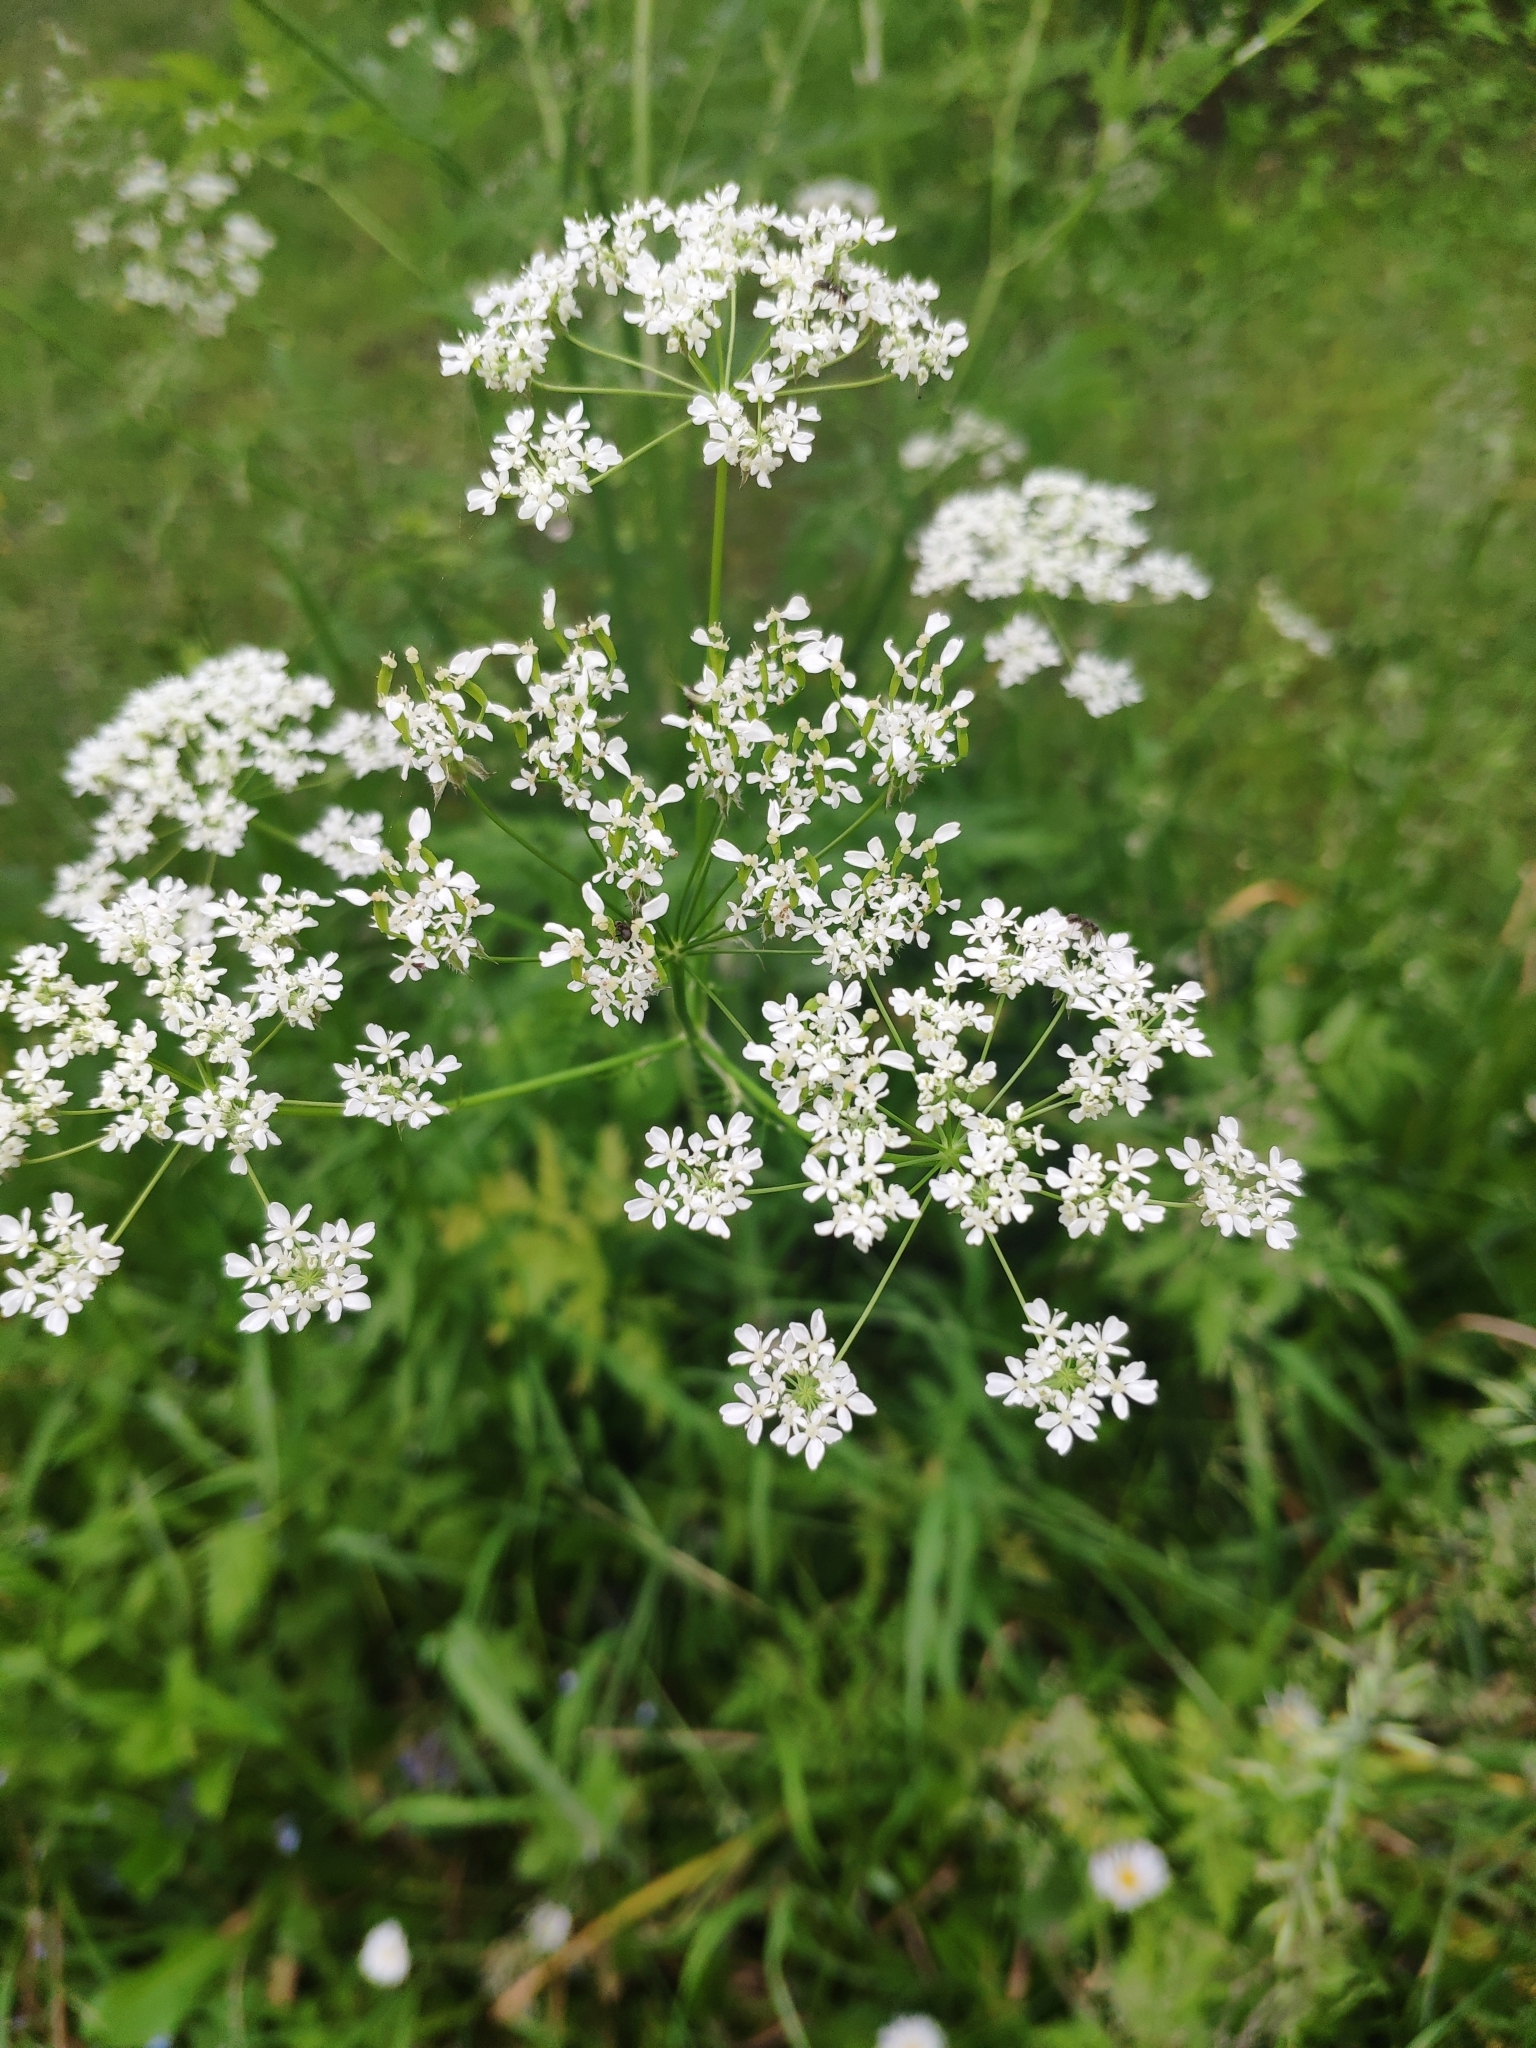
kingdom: Plantae
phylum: Tracheophyta
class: Magnoliopsida
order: Apiales
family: Apiaceae
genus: Anthriscus
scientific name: Anthriscus sylvestris
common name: Cow parsley
